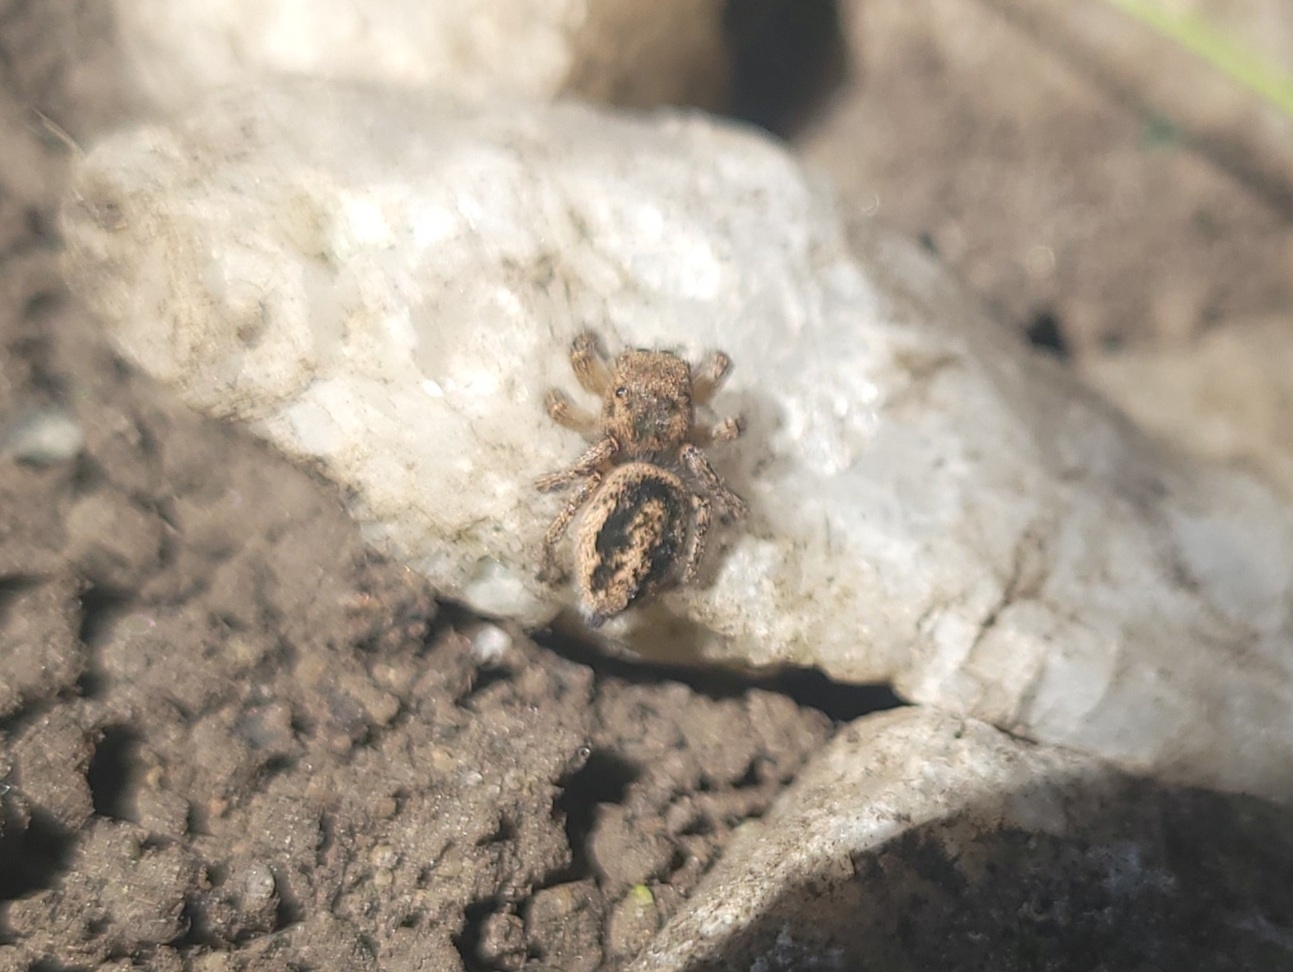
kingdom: Animalia
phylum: Arthropoda
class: Arachnida
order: Araneae
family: Salticidae
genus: Habronattus
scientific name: Habronattus decorus
